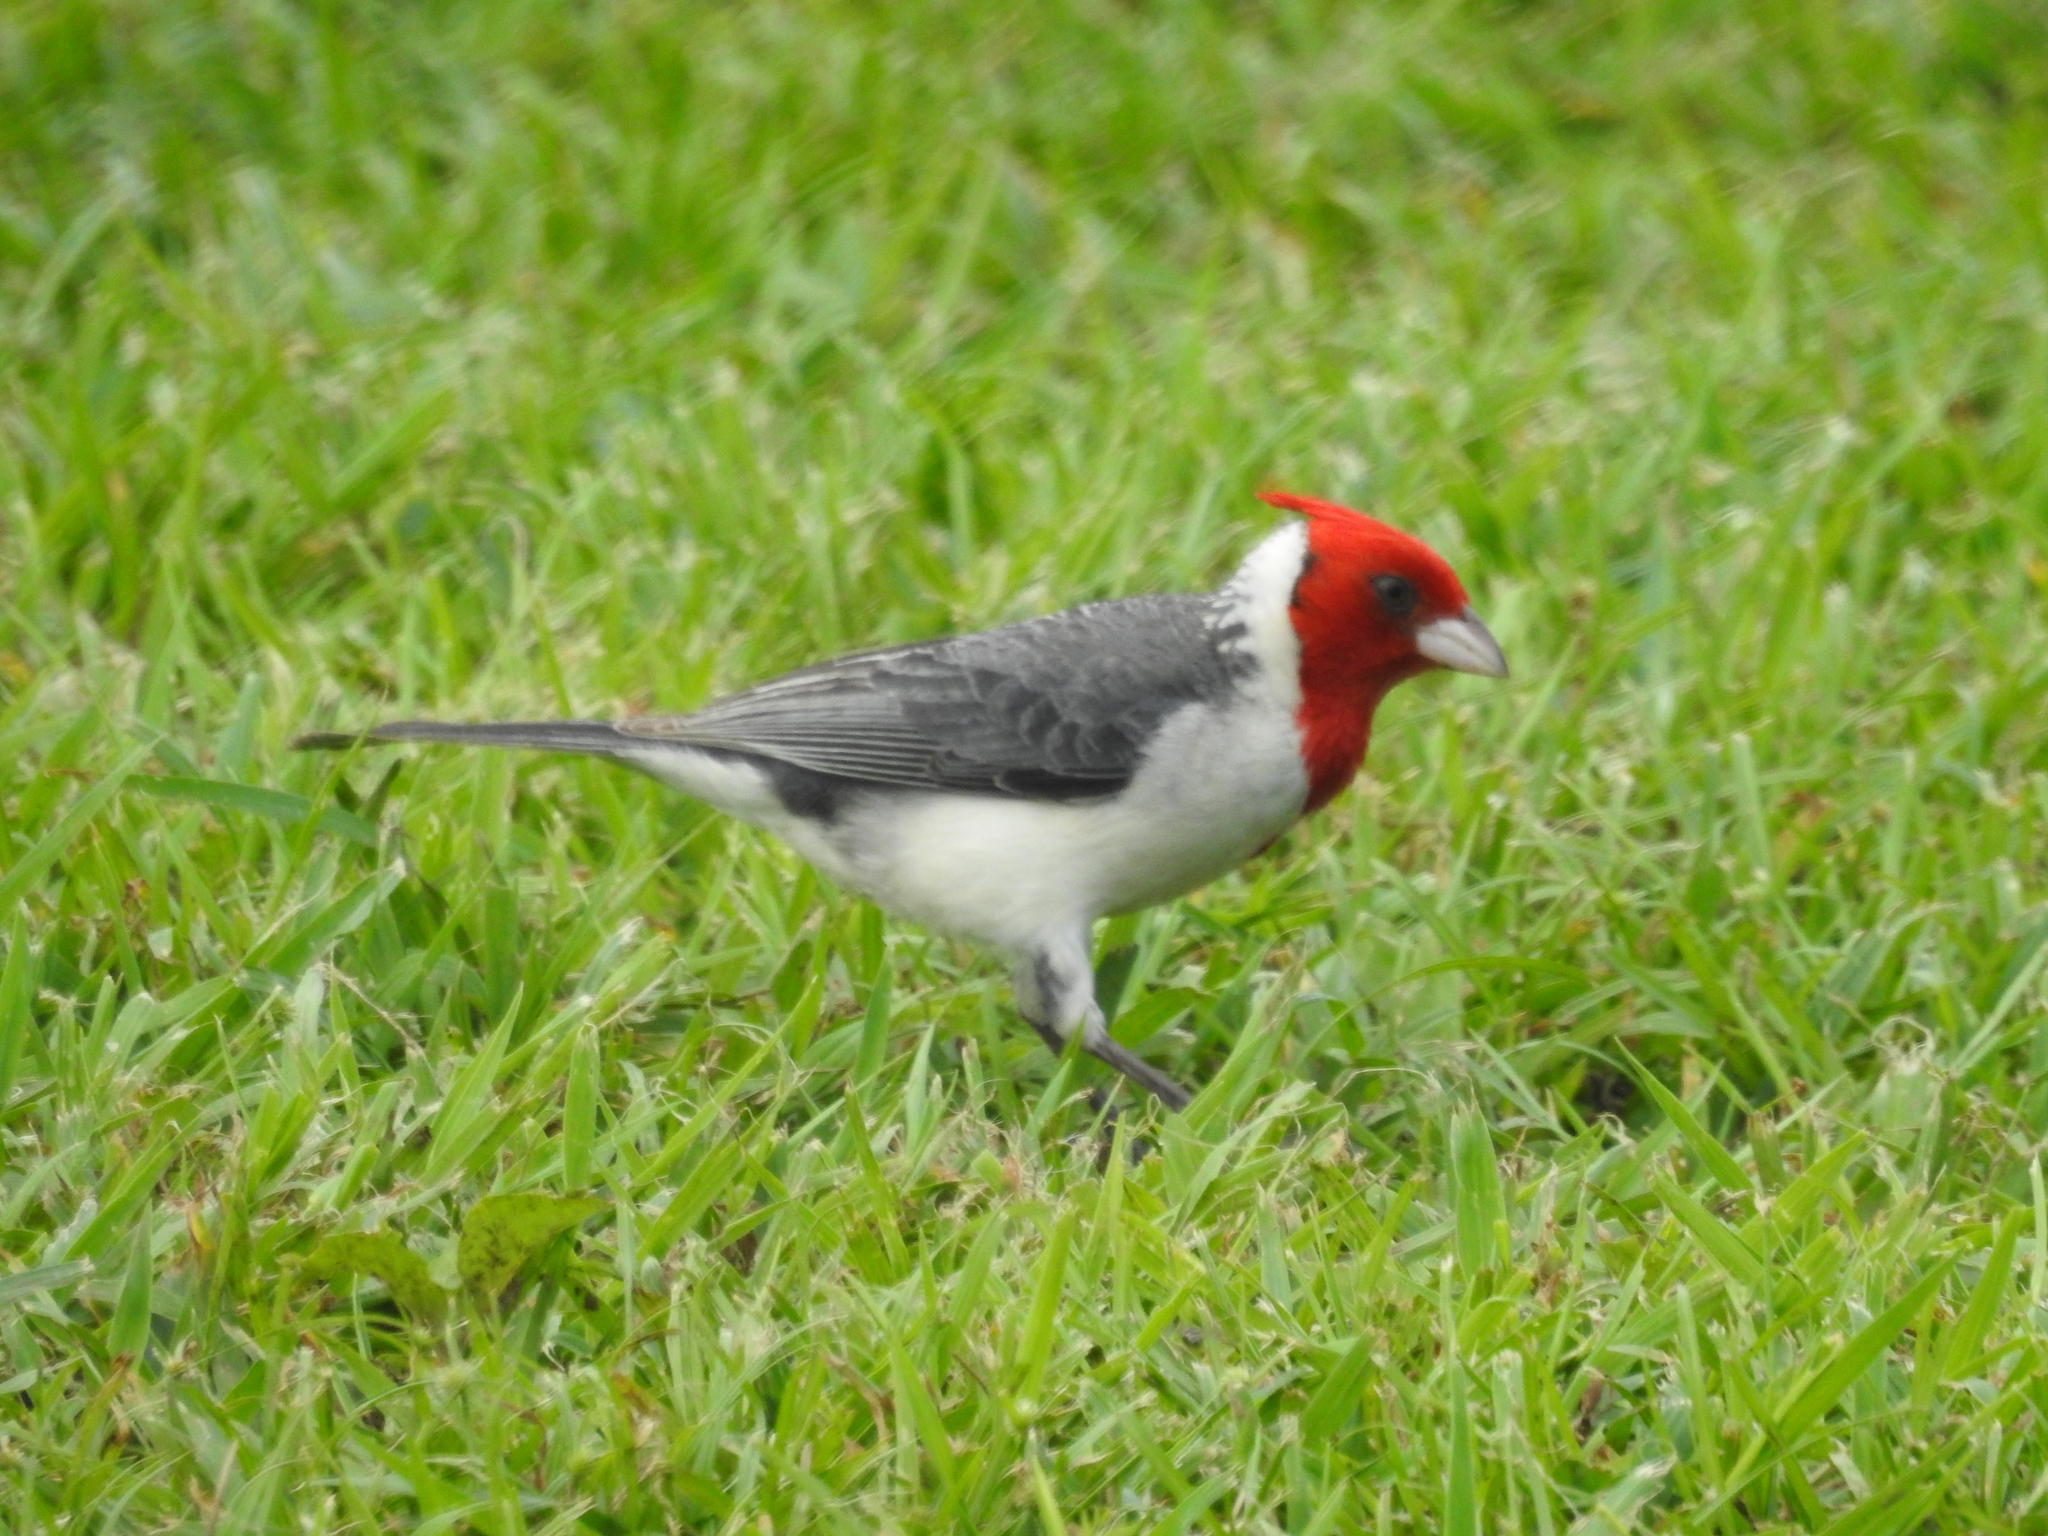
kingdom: Animalia
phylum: Chordata
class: Aves
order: Passeriformes
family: Thraupidae
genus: Paroaria
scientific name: Paroaria coronata
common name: Red-crested cardinal
